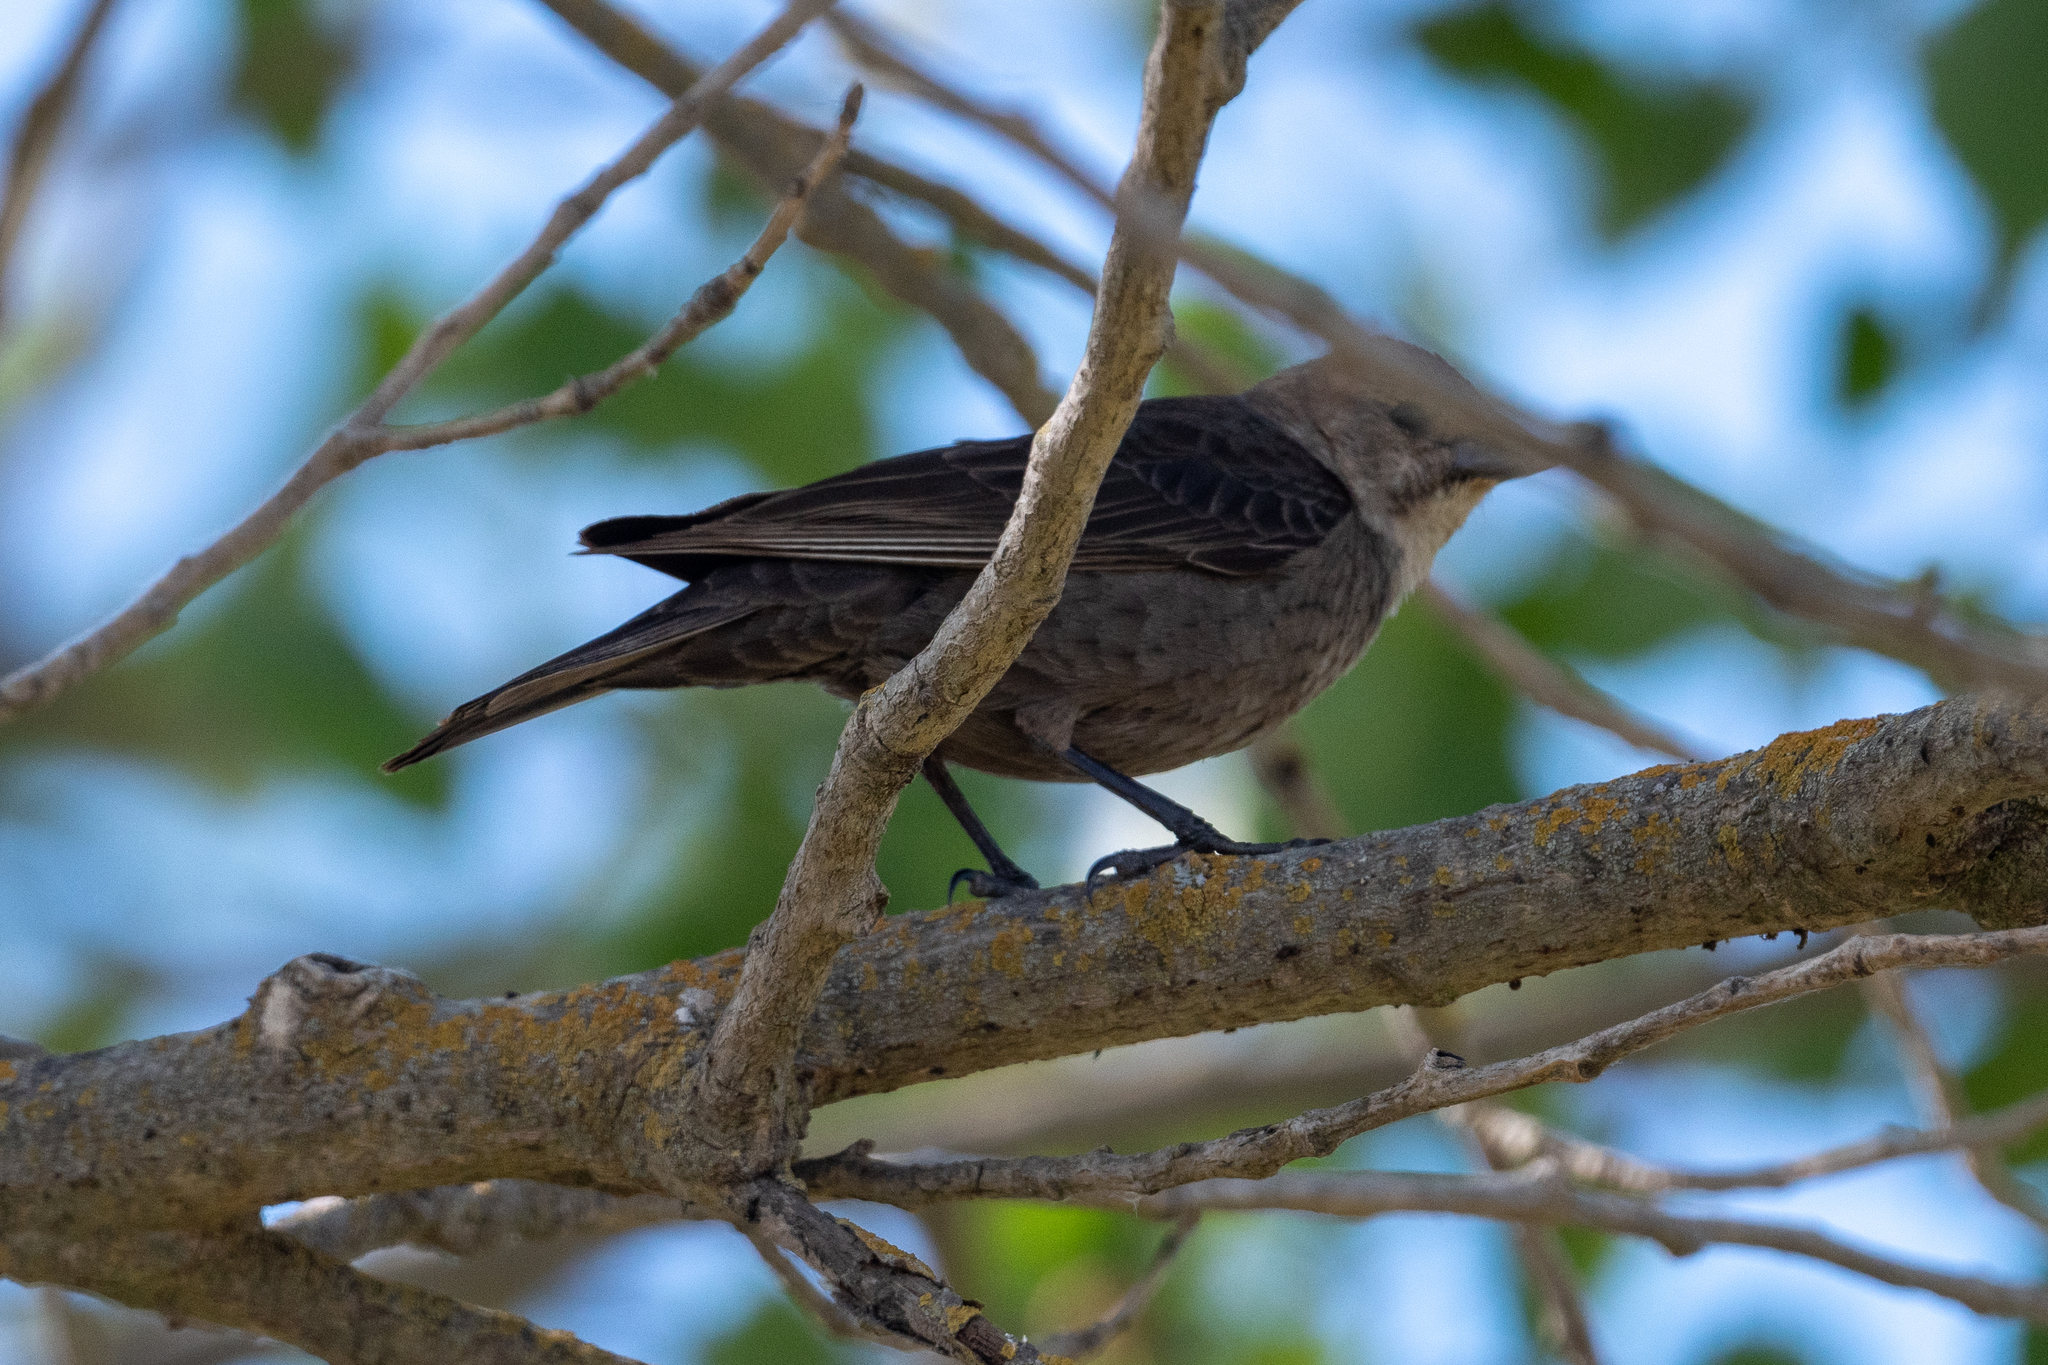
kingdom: Animalia
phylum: Chordata
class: Aves
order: Passeriformes
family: Icteridae
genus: Molothrus
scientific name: Molothrus ater
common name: Brown-headed cowbird
